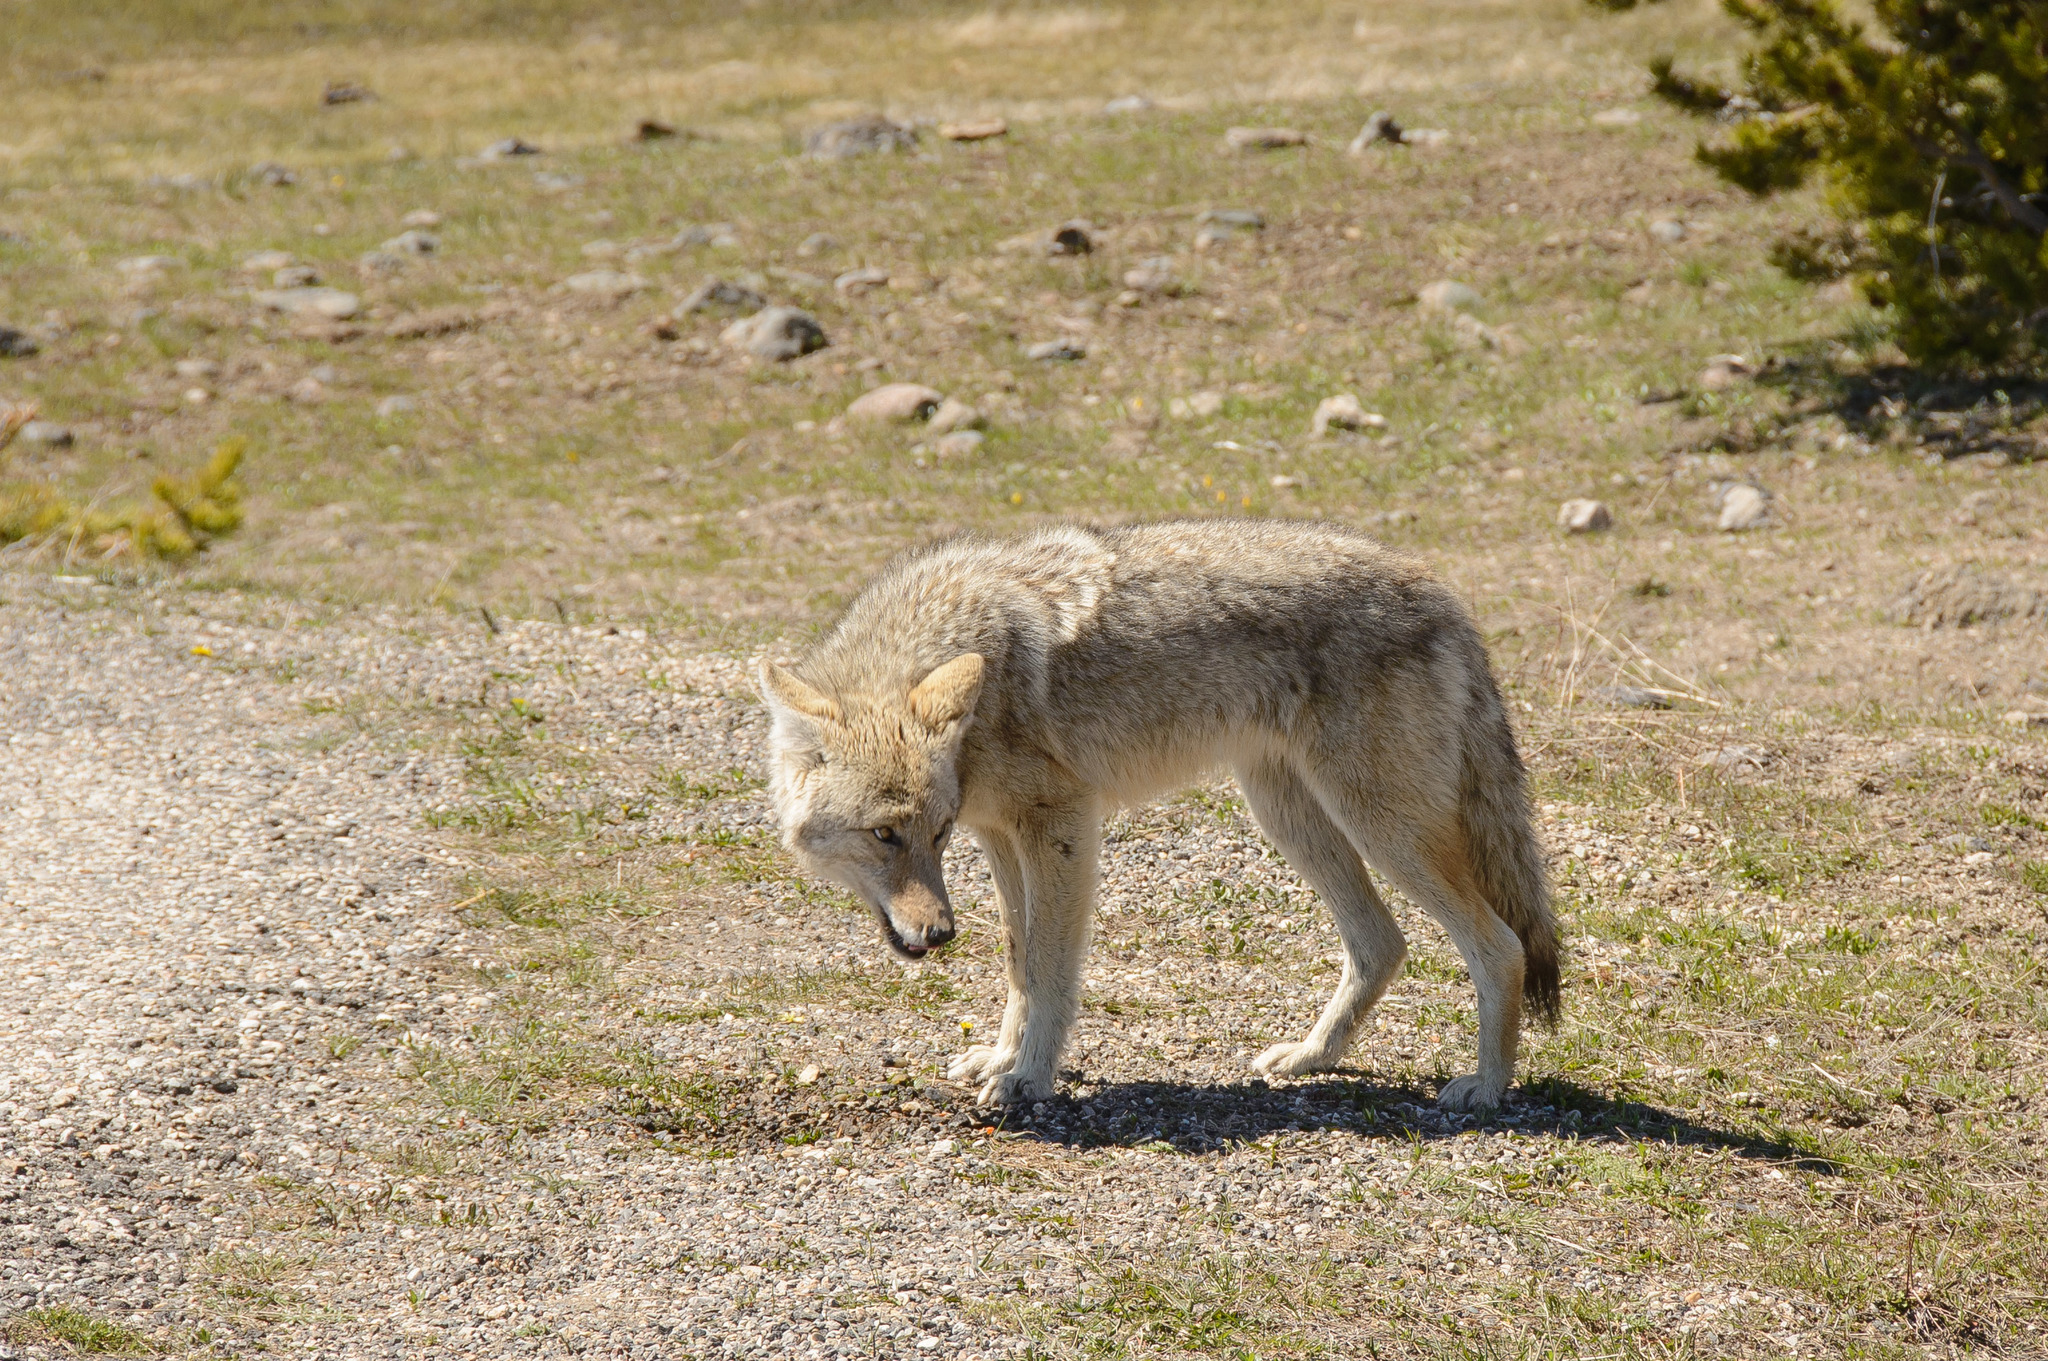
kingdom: Animalia
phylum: Chordata
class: Mammalia
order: Carnivora
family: Canidae
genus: Canis
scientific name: Canis latrans
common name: Coyote
